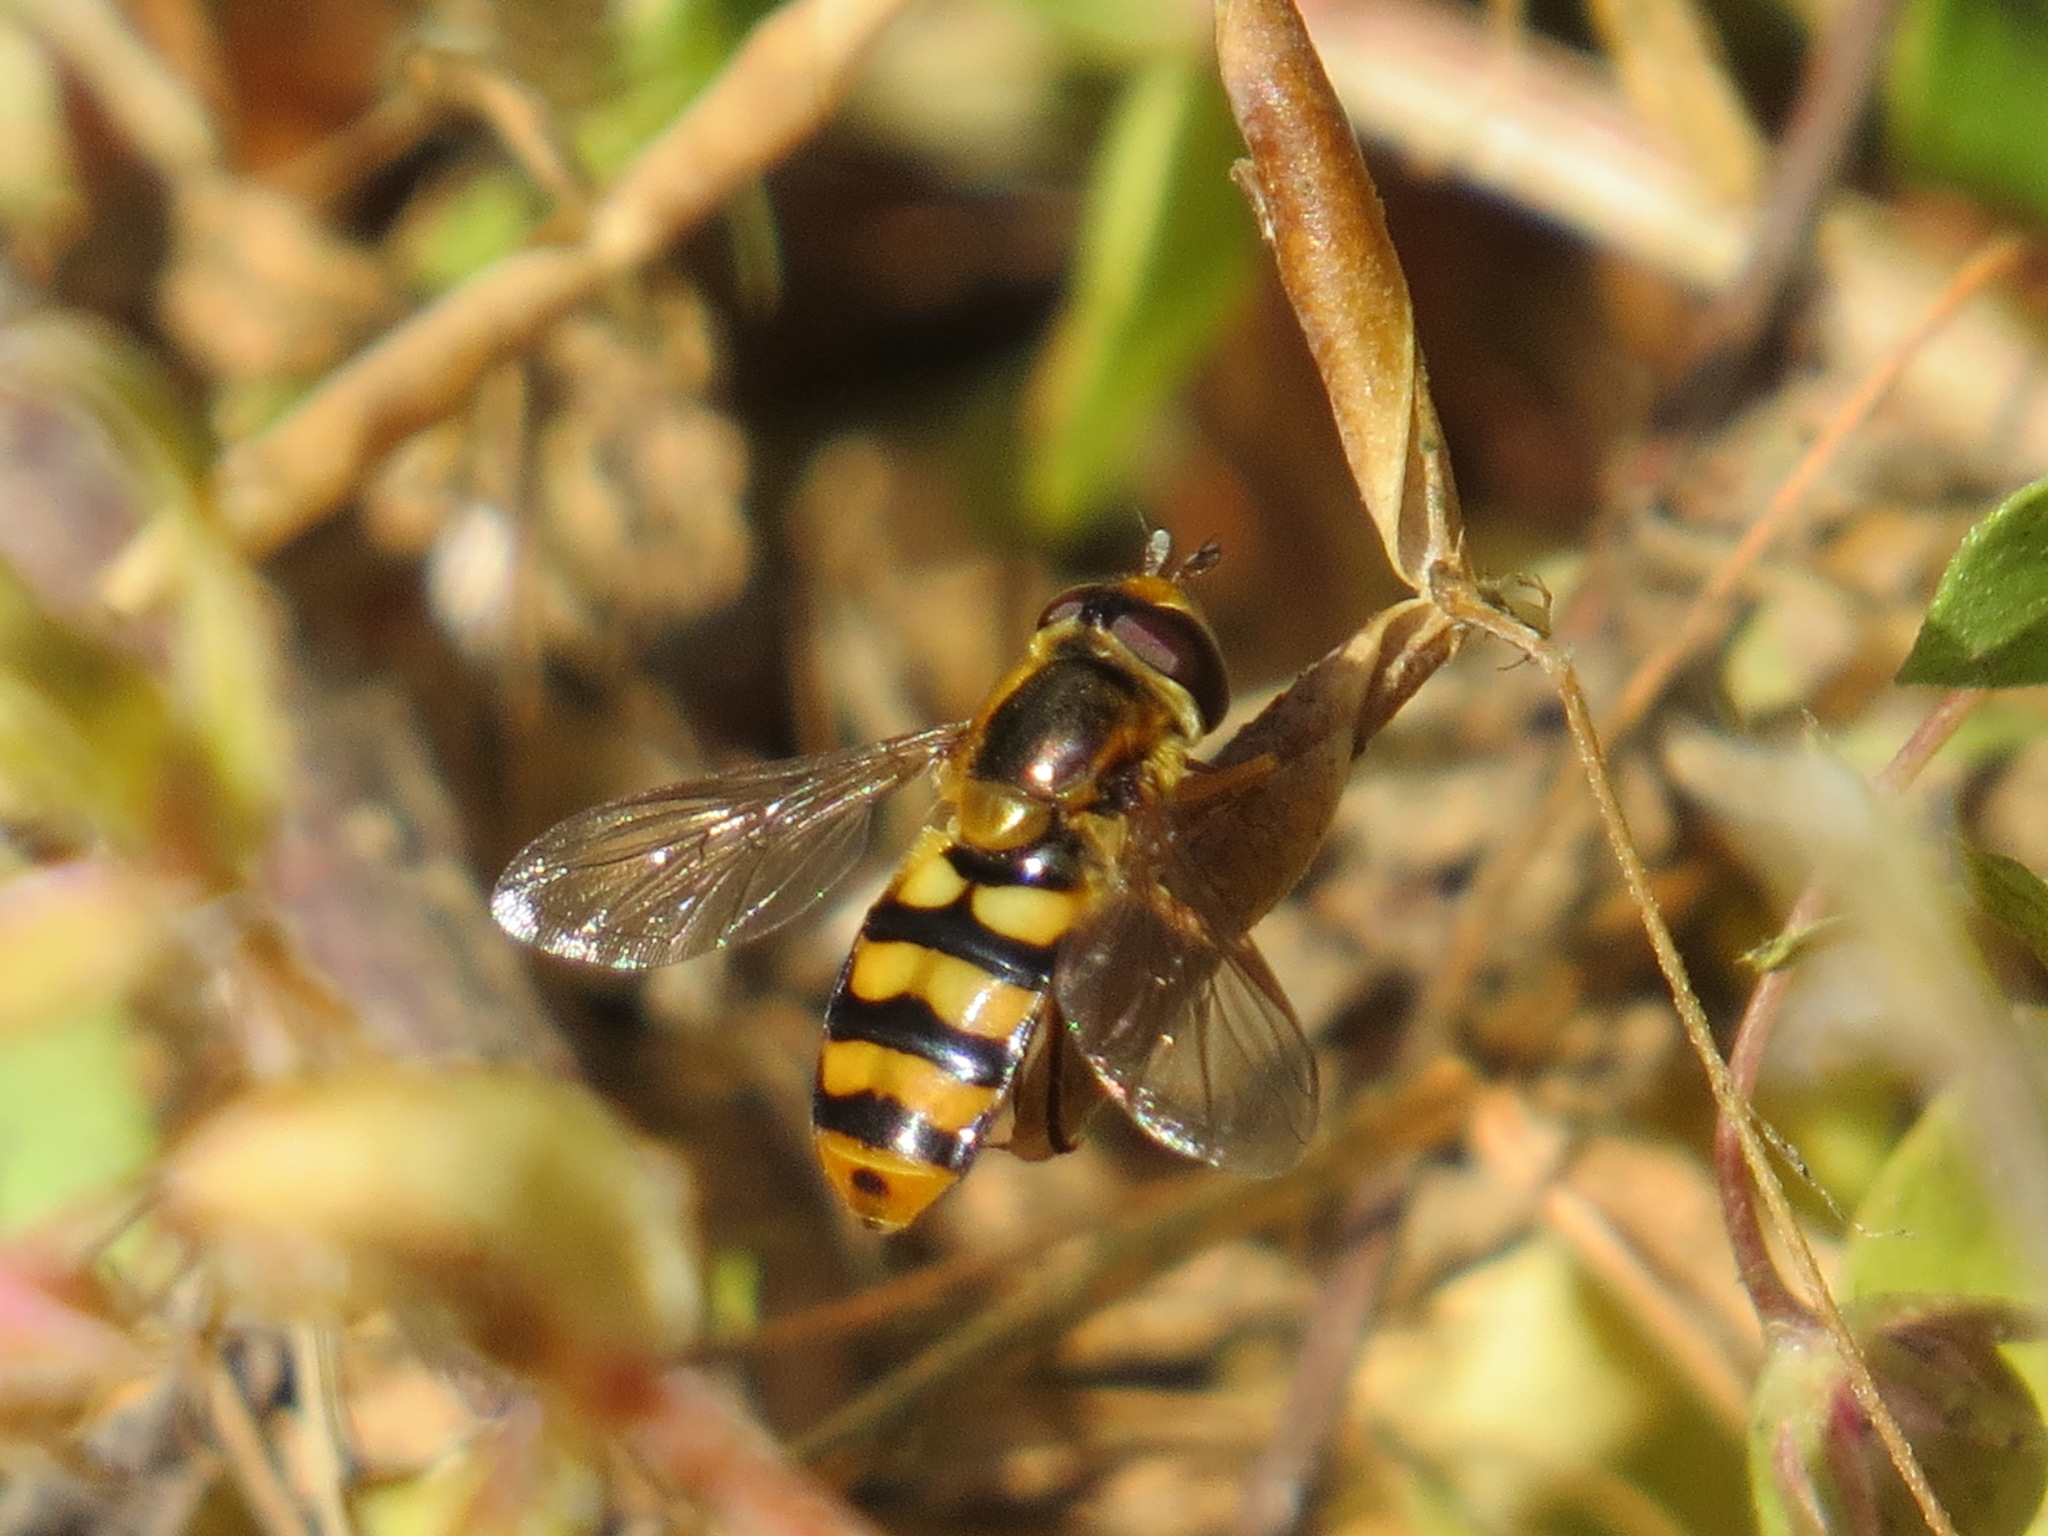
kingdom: Animalia
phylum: Arthropoda
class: Insecta
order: Diptera
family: Syrphidae
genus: Eupeodes
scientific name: Eupeodes latifasciatus
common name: Variable aphideater
